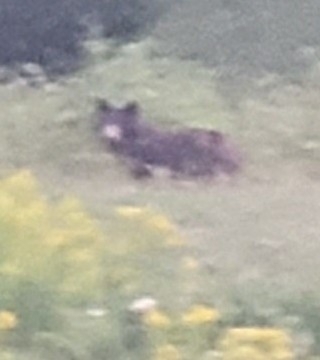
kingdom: Animalia
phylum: Chordata
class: Mammalia
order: Carnivora
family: Ursidae
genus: Ursus
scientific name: Ursus americanus
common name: American black bear
